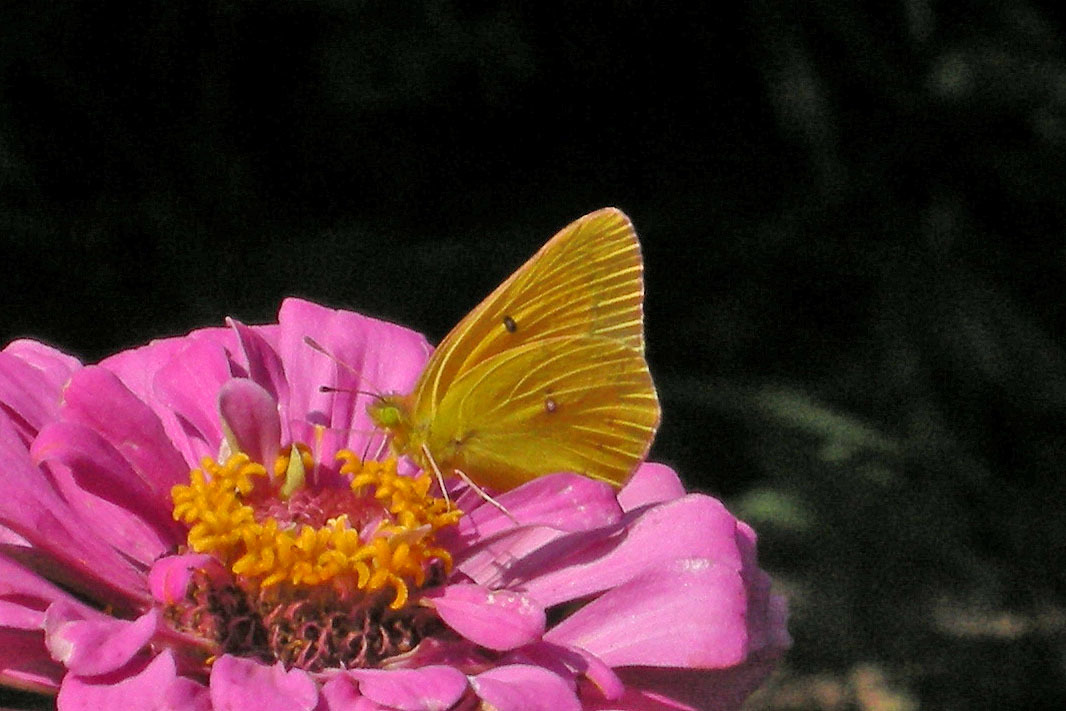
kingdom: Animalia
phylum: Arthropoda
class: Insecta
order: Lepidoptera
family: Pieridae
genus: Colias
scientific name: Colias eurytheme
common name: Alfalfa butterfly
